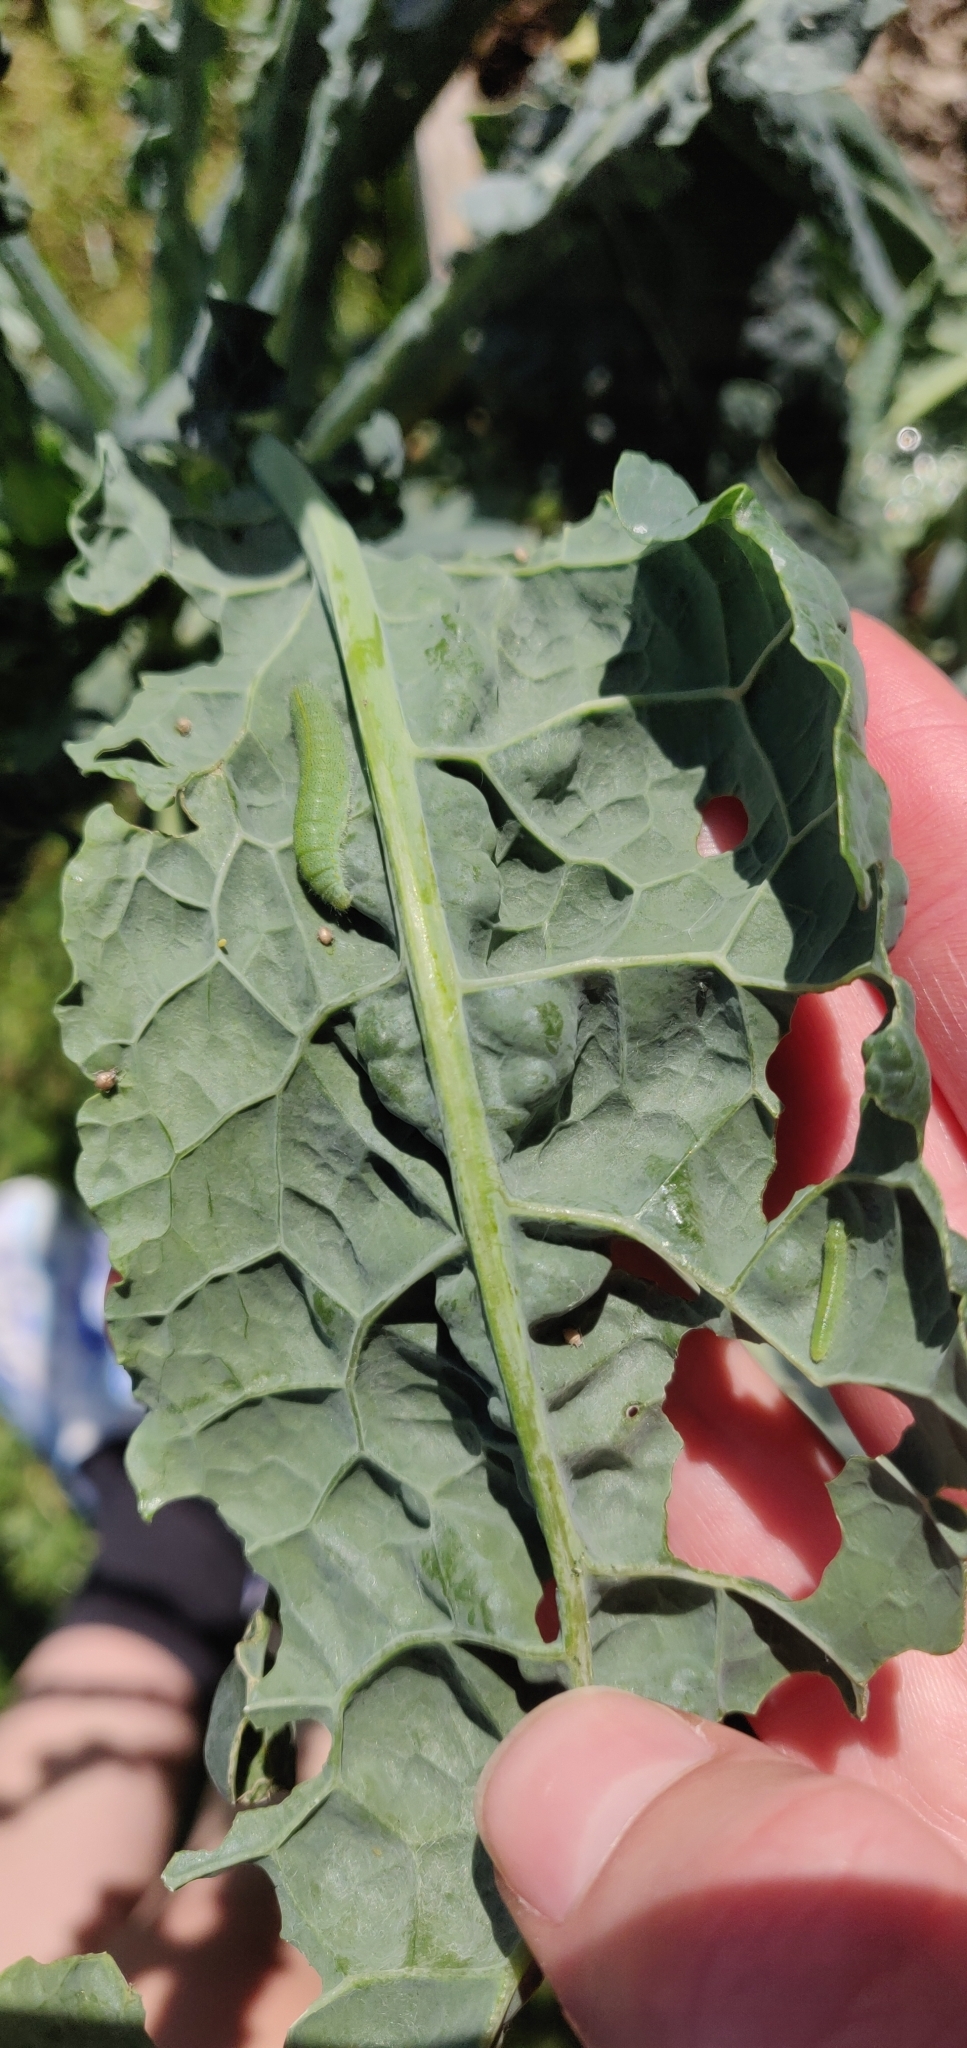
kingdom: Animalia
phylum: Arthropoda
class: Insecta
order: Lepidoptera
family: Pieridae
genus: Pieris
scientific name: Pieris rapae
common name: Small white
